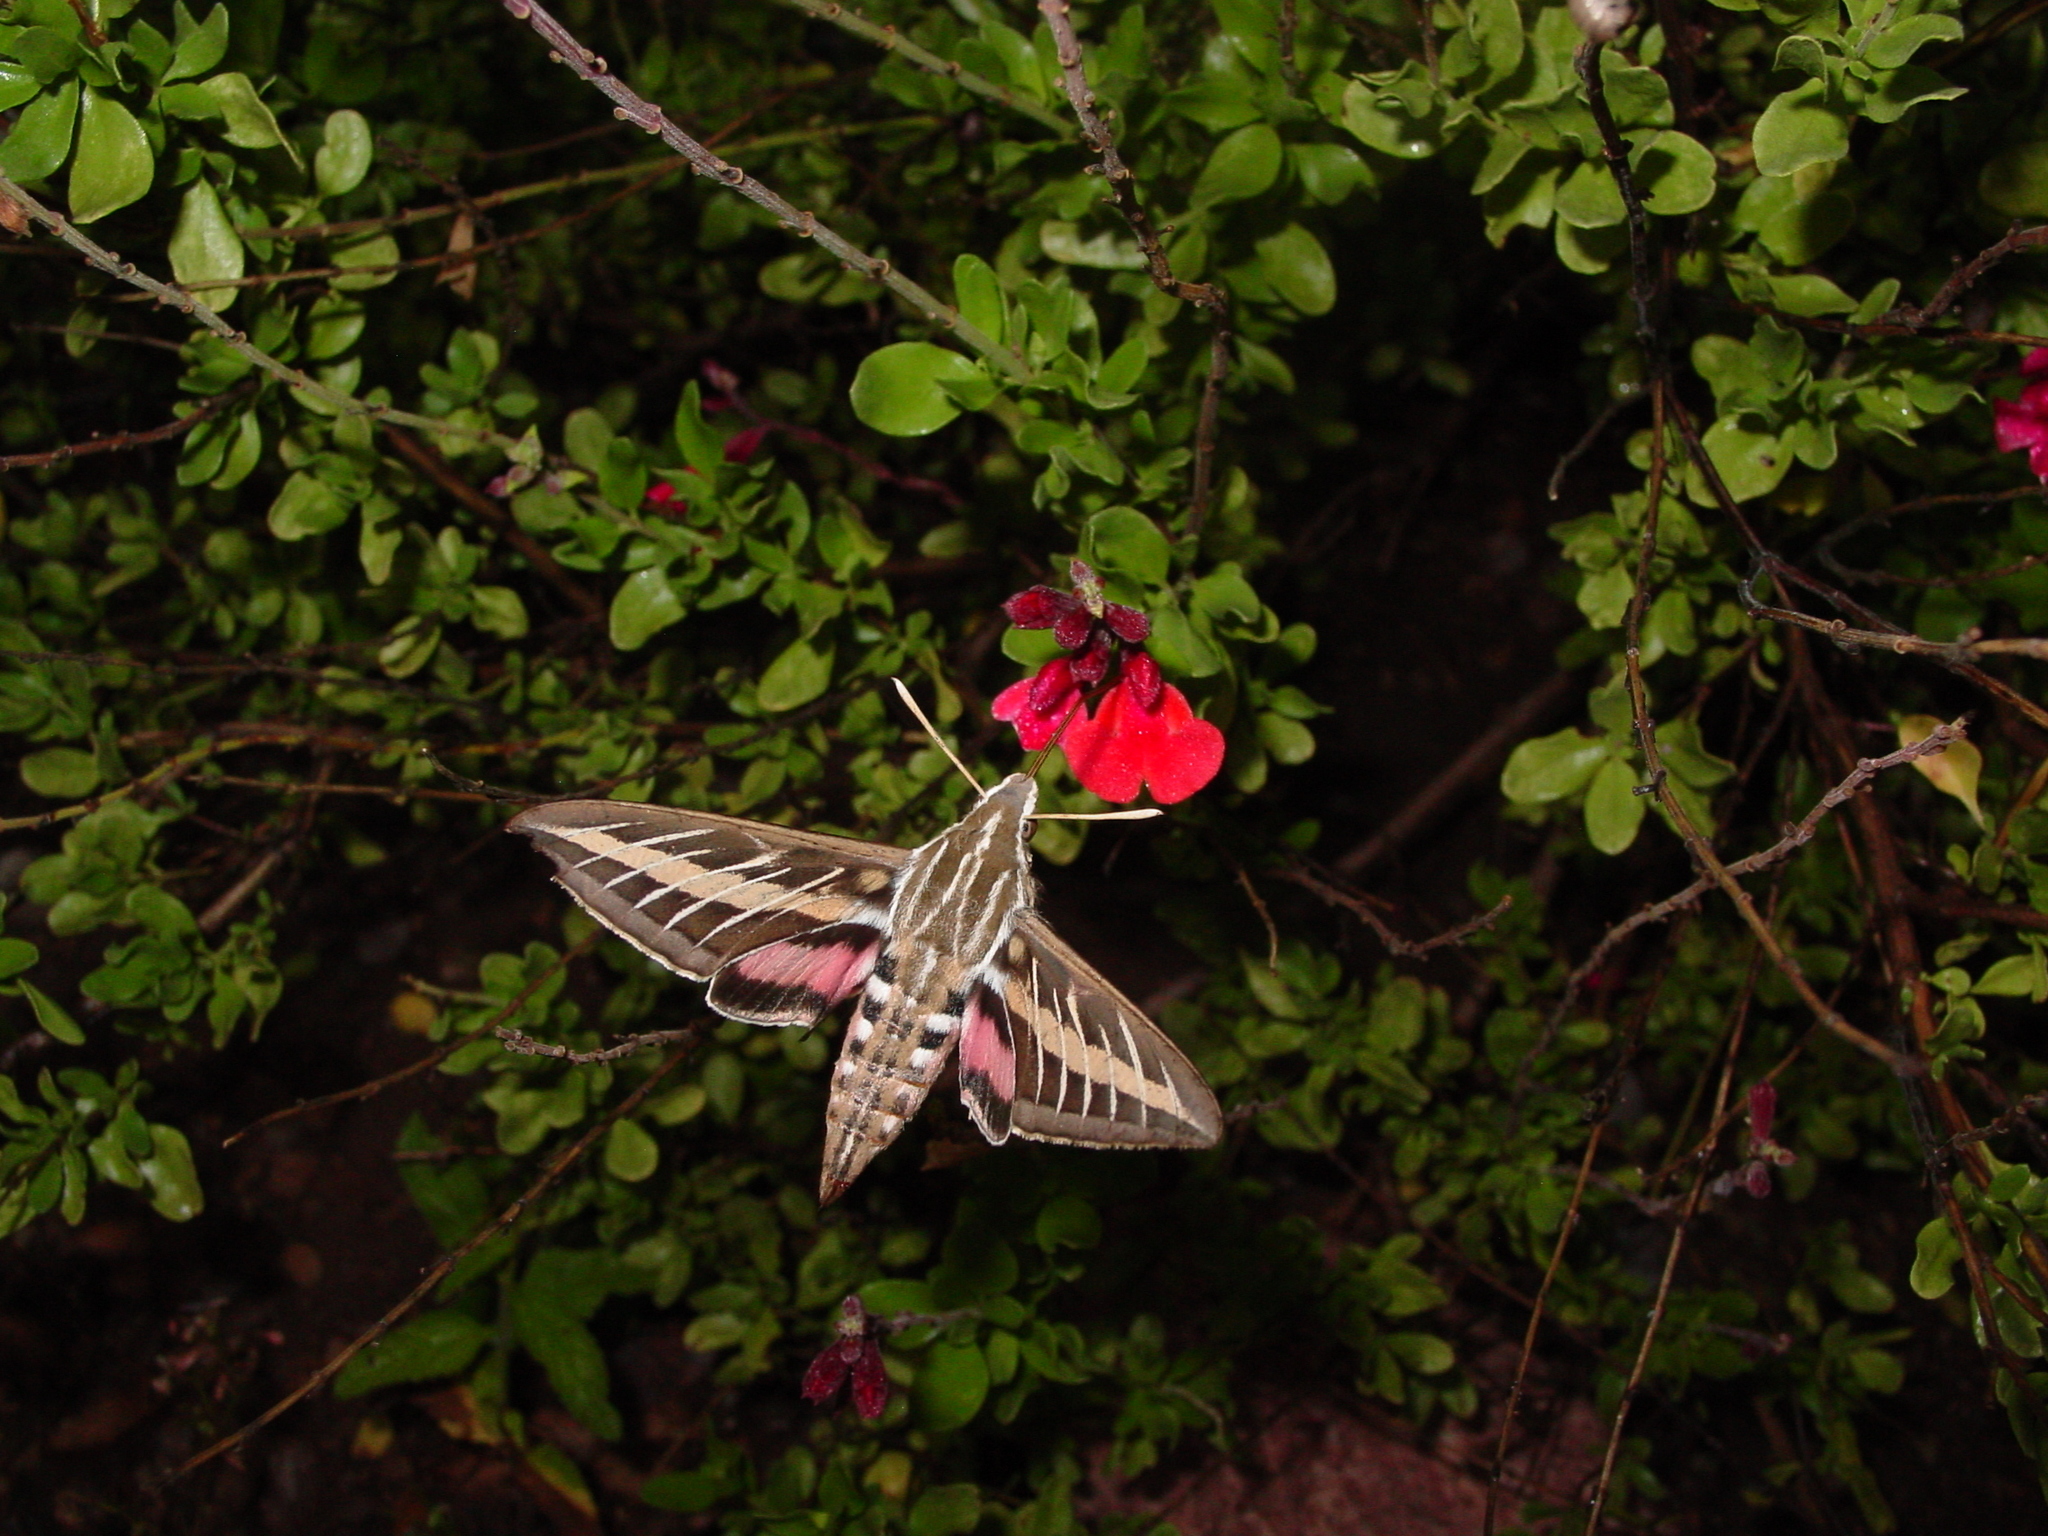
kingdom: Animalia
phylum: Arthropoda
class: Insecta
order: Lepidoptera
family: Sphingidae
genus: Hyles
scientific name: Hyles lineata
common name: White-lined sphinx
